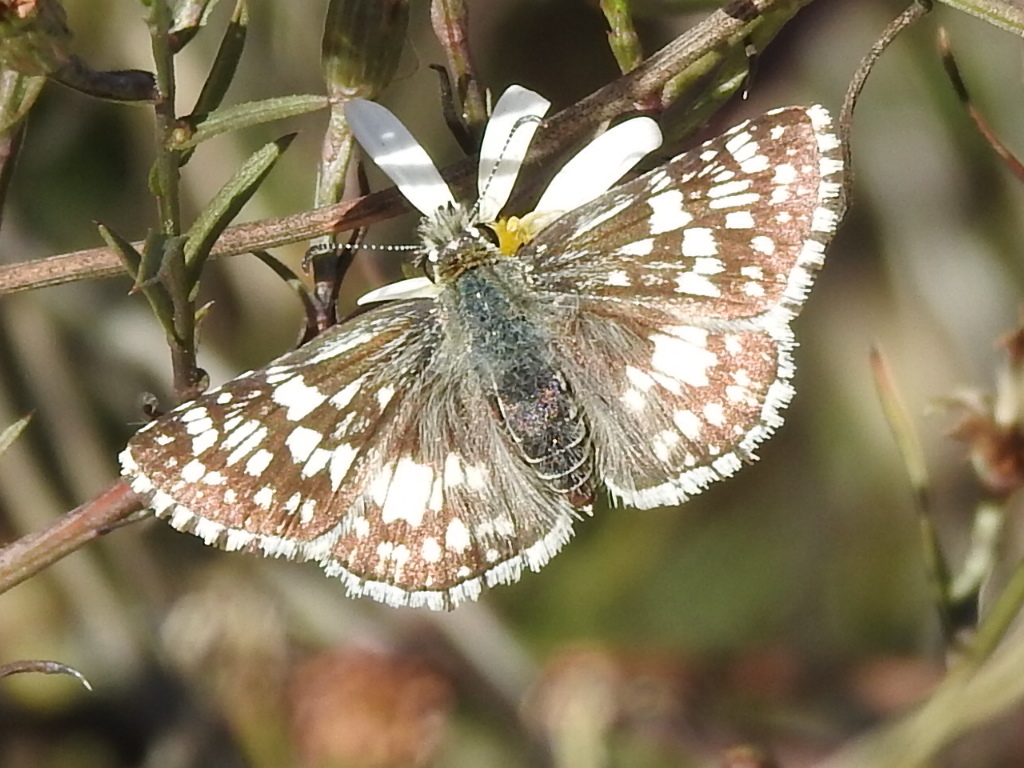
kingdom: Animalia
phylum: Arthropoda
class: Insecta
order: Lepidoptera
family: Hesperiidae
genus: Burnsius
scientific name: Burnsius
